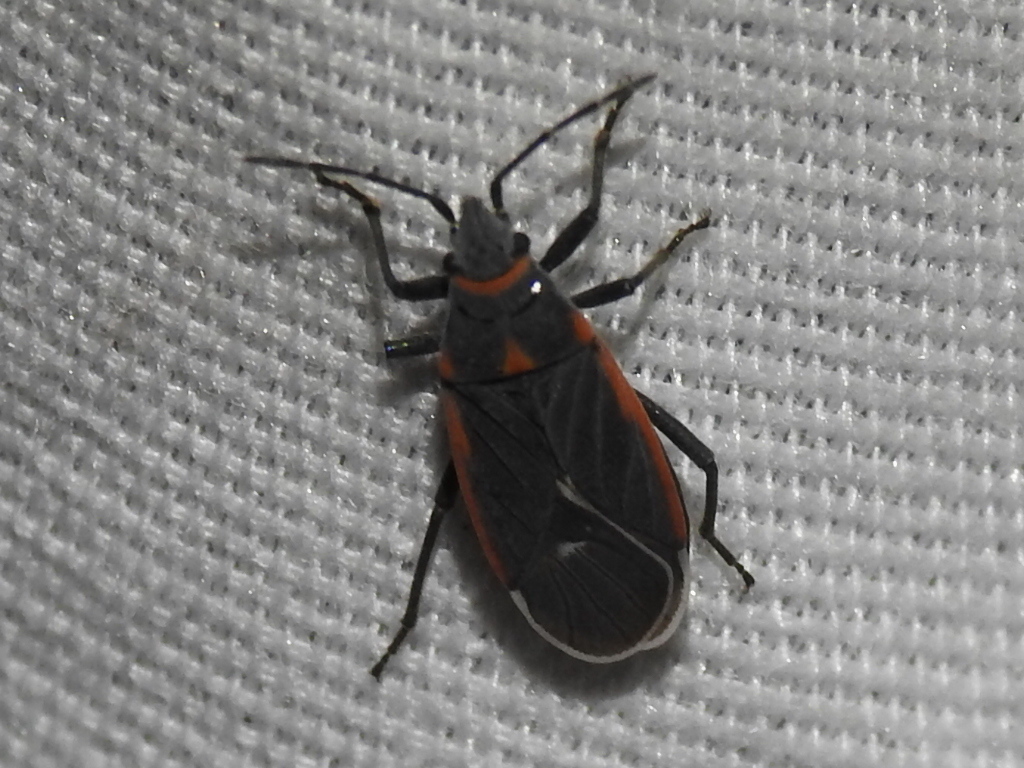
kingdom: Animalia
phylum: Arthropoda
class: Insecta
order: Hemiptera
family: Lygaeidae
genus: Melacoryphus
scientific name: Melacoryphus lateralis
